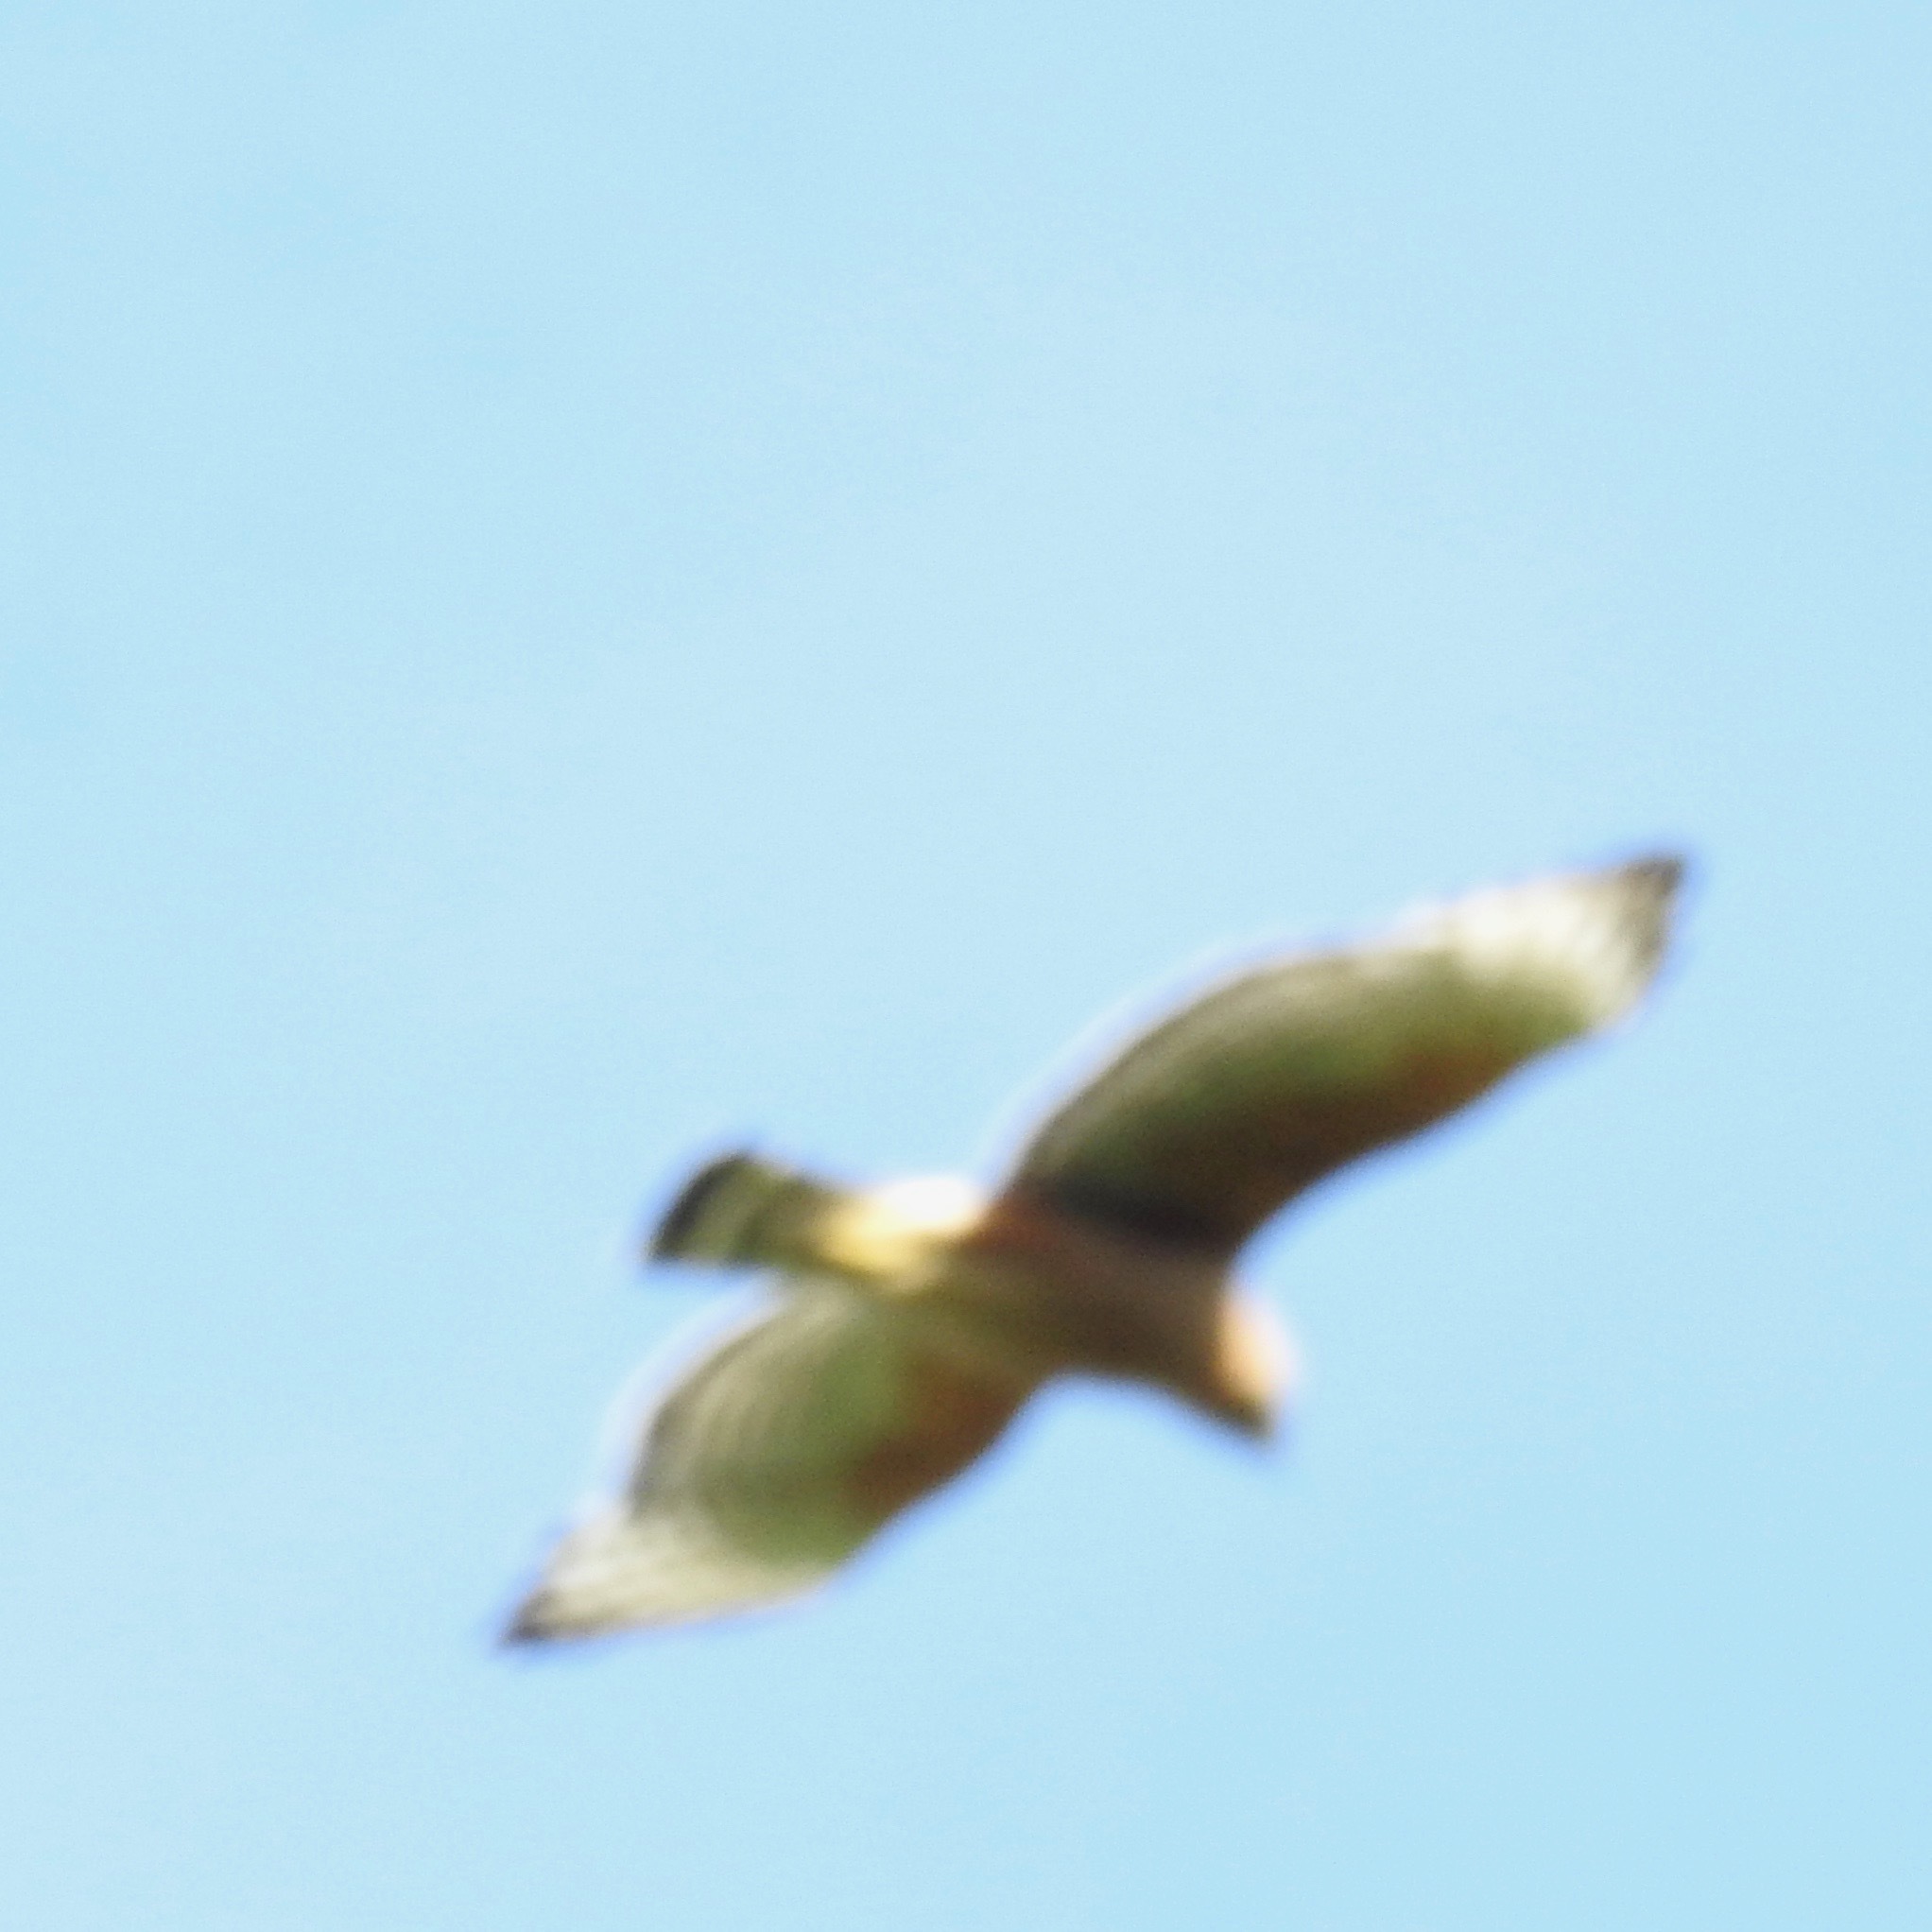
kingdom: Animalia
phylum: Chordata
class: Aves
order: Accipitriformes
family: Accipitridae
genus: Buteo
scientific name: Buteo lineatus
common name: Red-shouldered hawk
